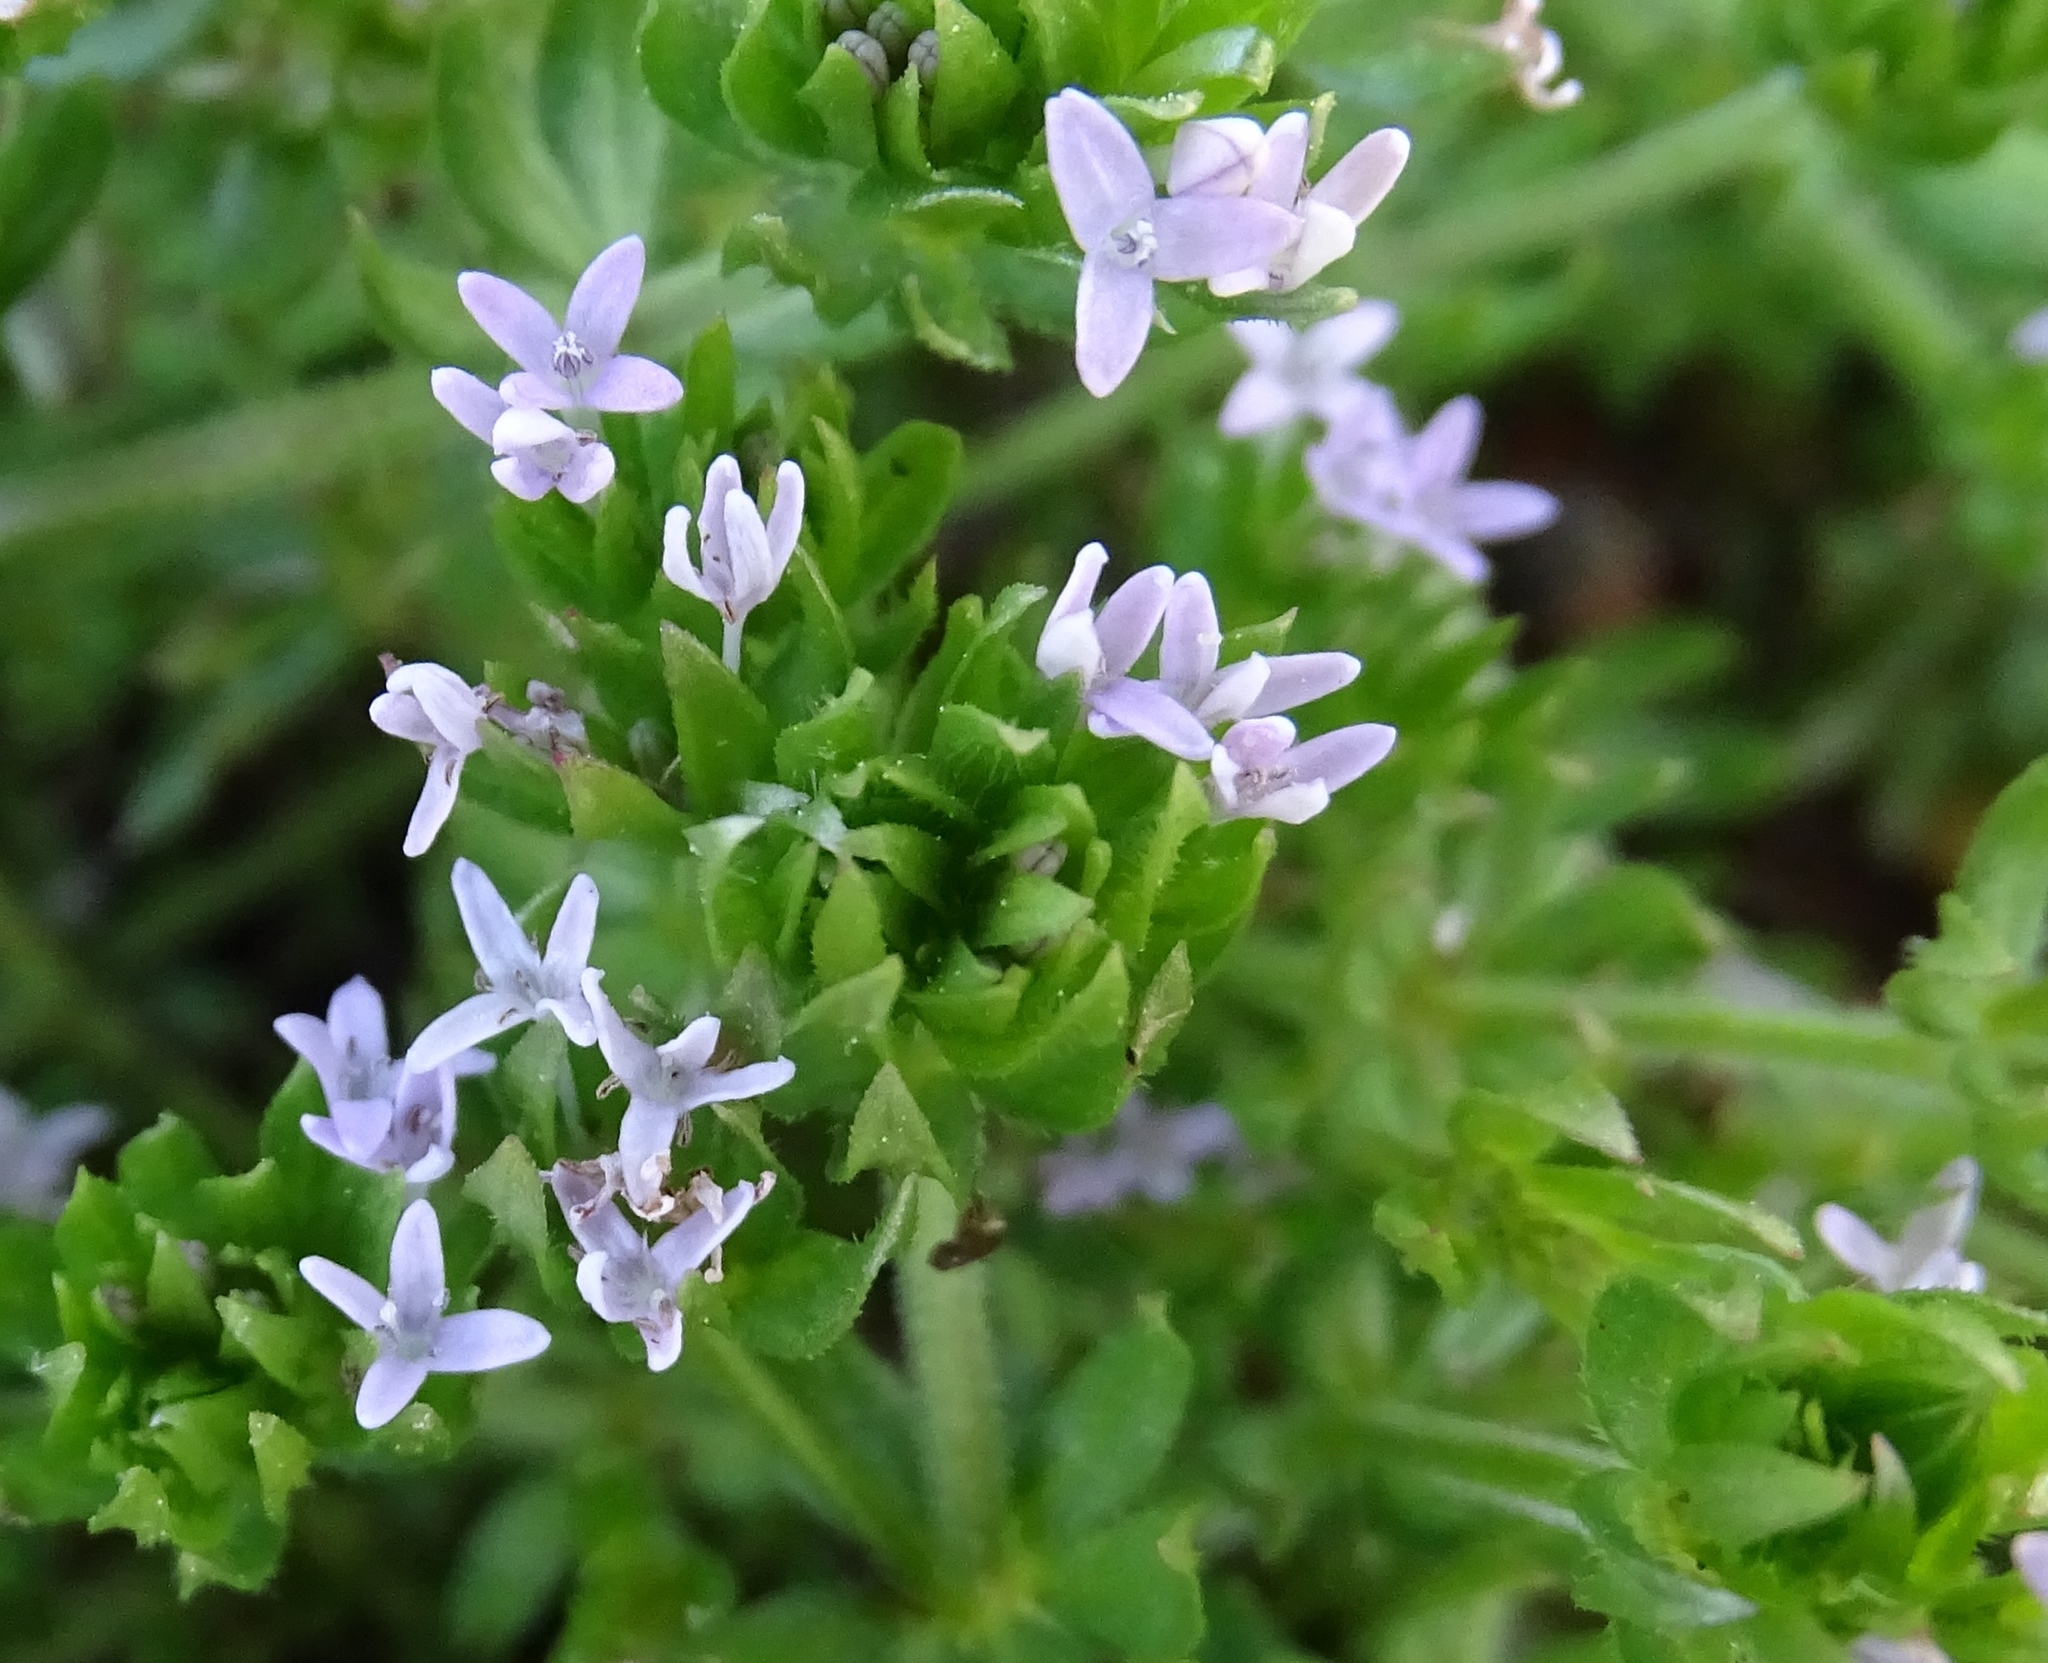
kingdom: Plantae
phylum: Tracheophyta
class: Magnoliopsida
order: Gentianales
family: Rubiaceae
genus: Sherardia
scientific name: Sherardia arvensis
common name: Field madder
